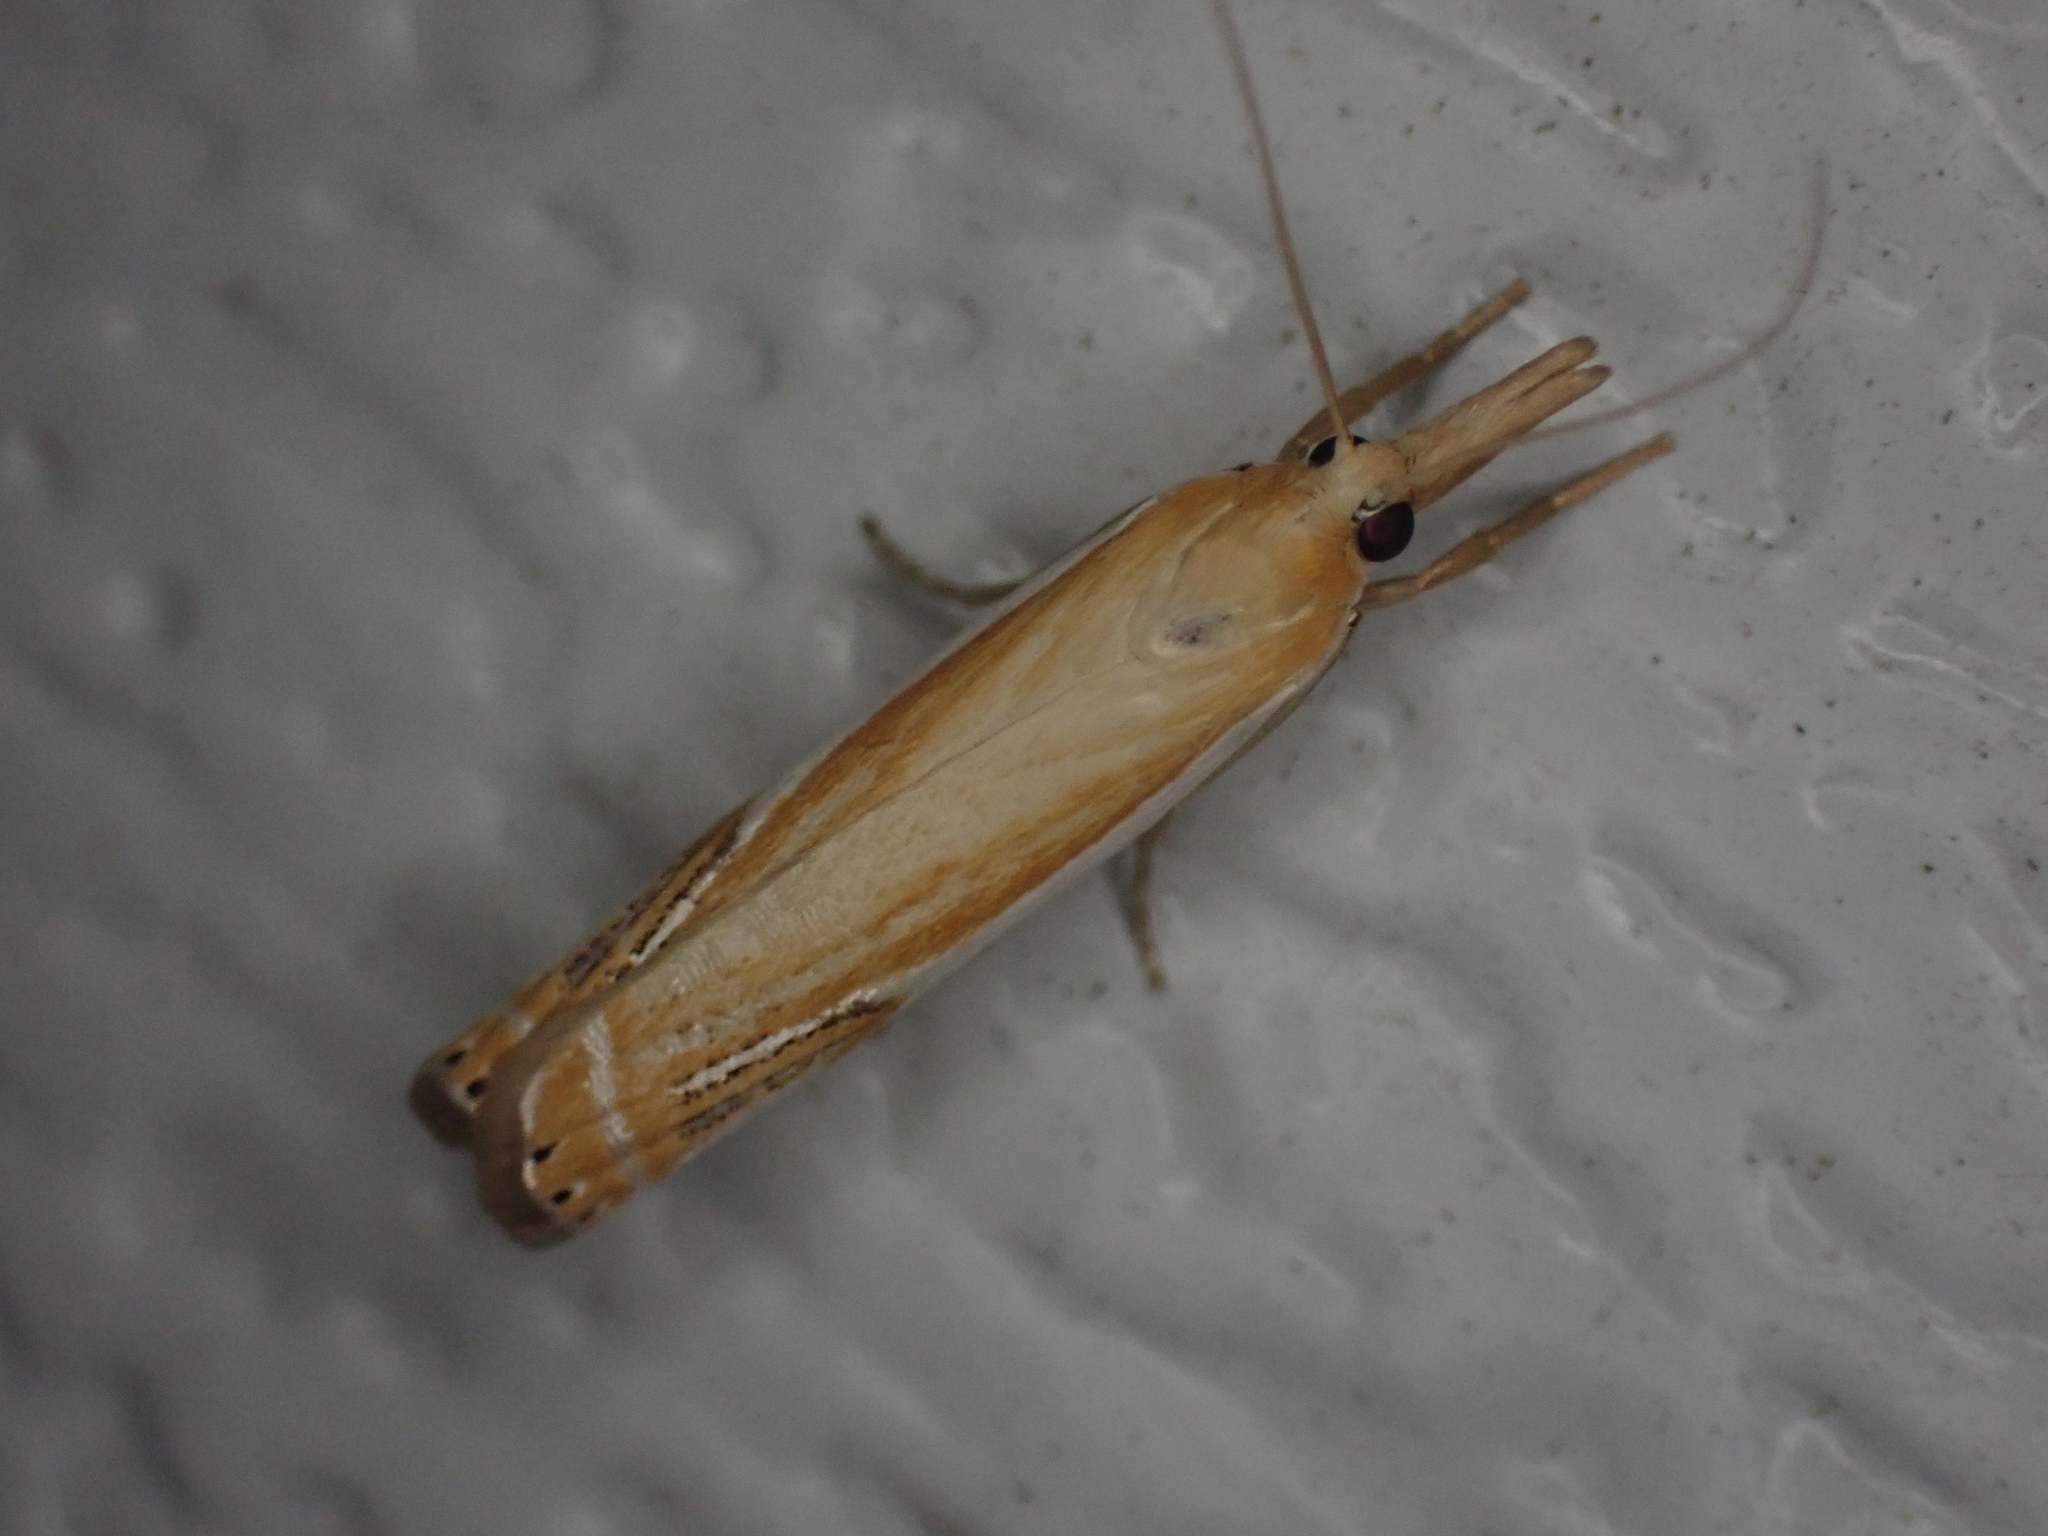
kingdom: Animalia
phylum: Arthropoda
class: Insecta
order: Lepidoptera
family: Crambidae
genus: Crambus
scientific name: Crambus agitatellus
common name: Double-banded grass-veneer
